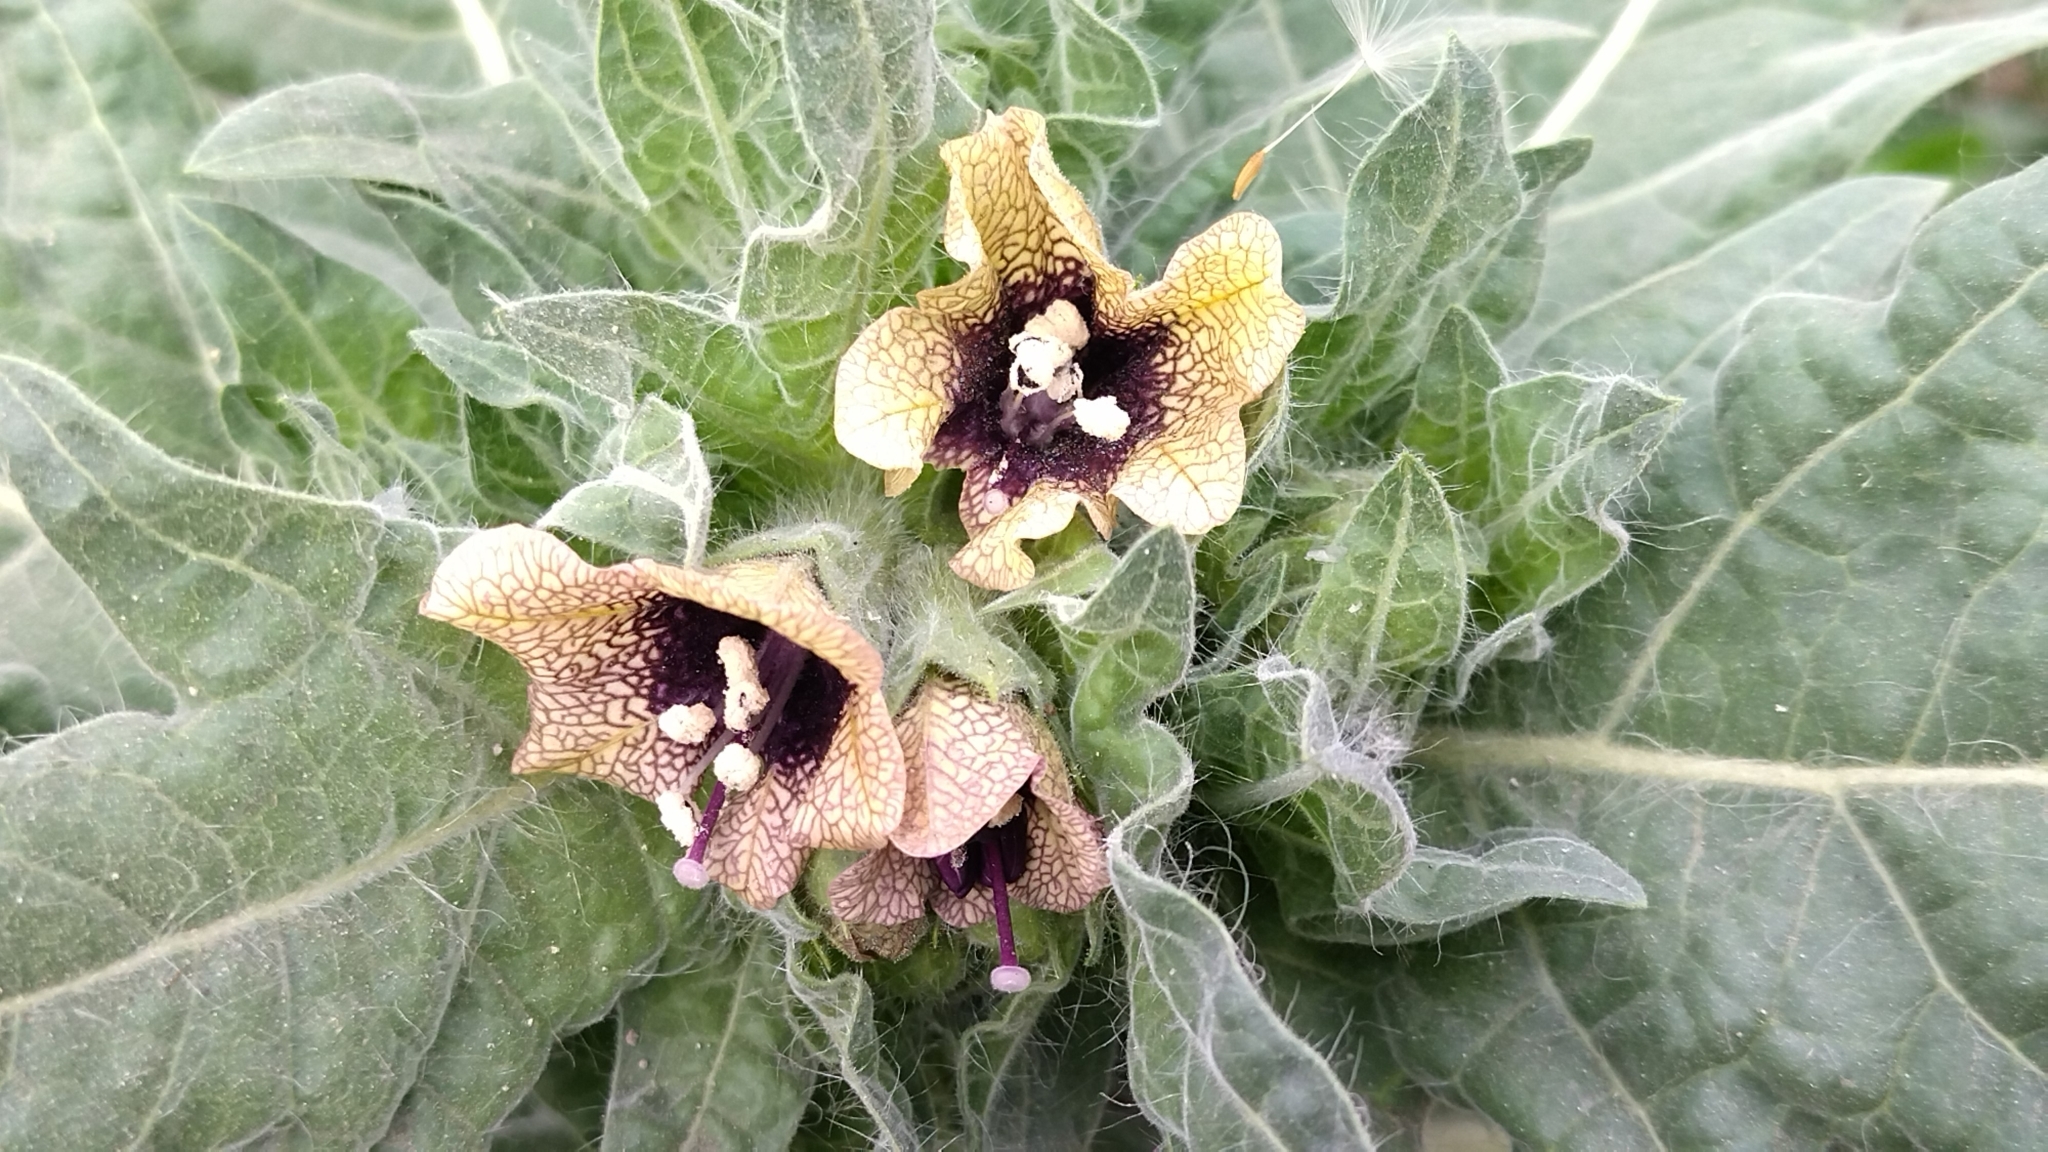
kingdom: Plantae
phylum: Tracheophyta
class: Magnoliopsida
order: Solanales
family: Solanaceae
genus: Hyoscyamus
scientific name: Hyoscyamus niger
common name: Henbane
